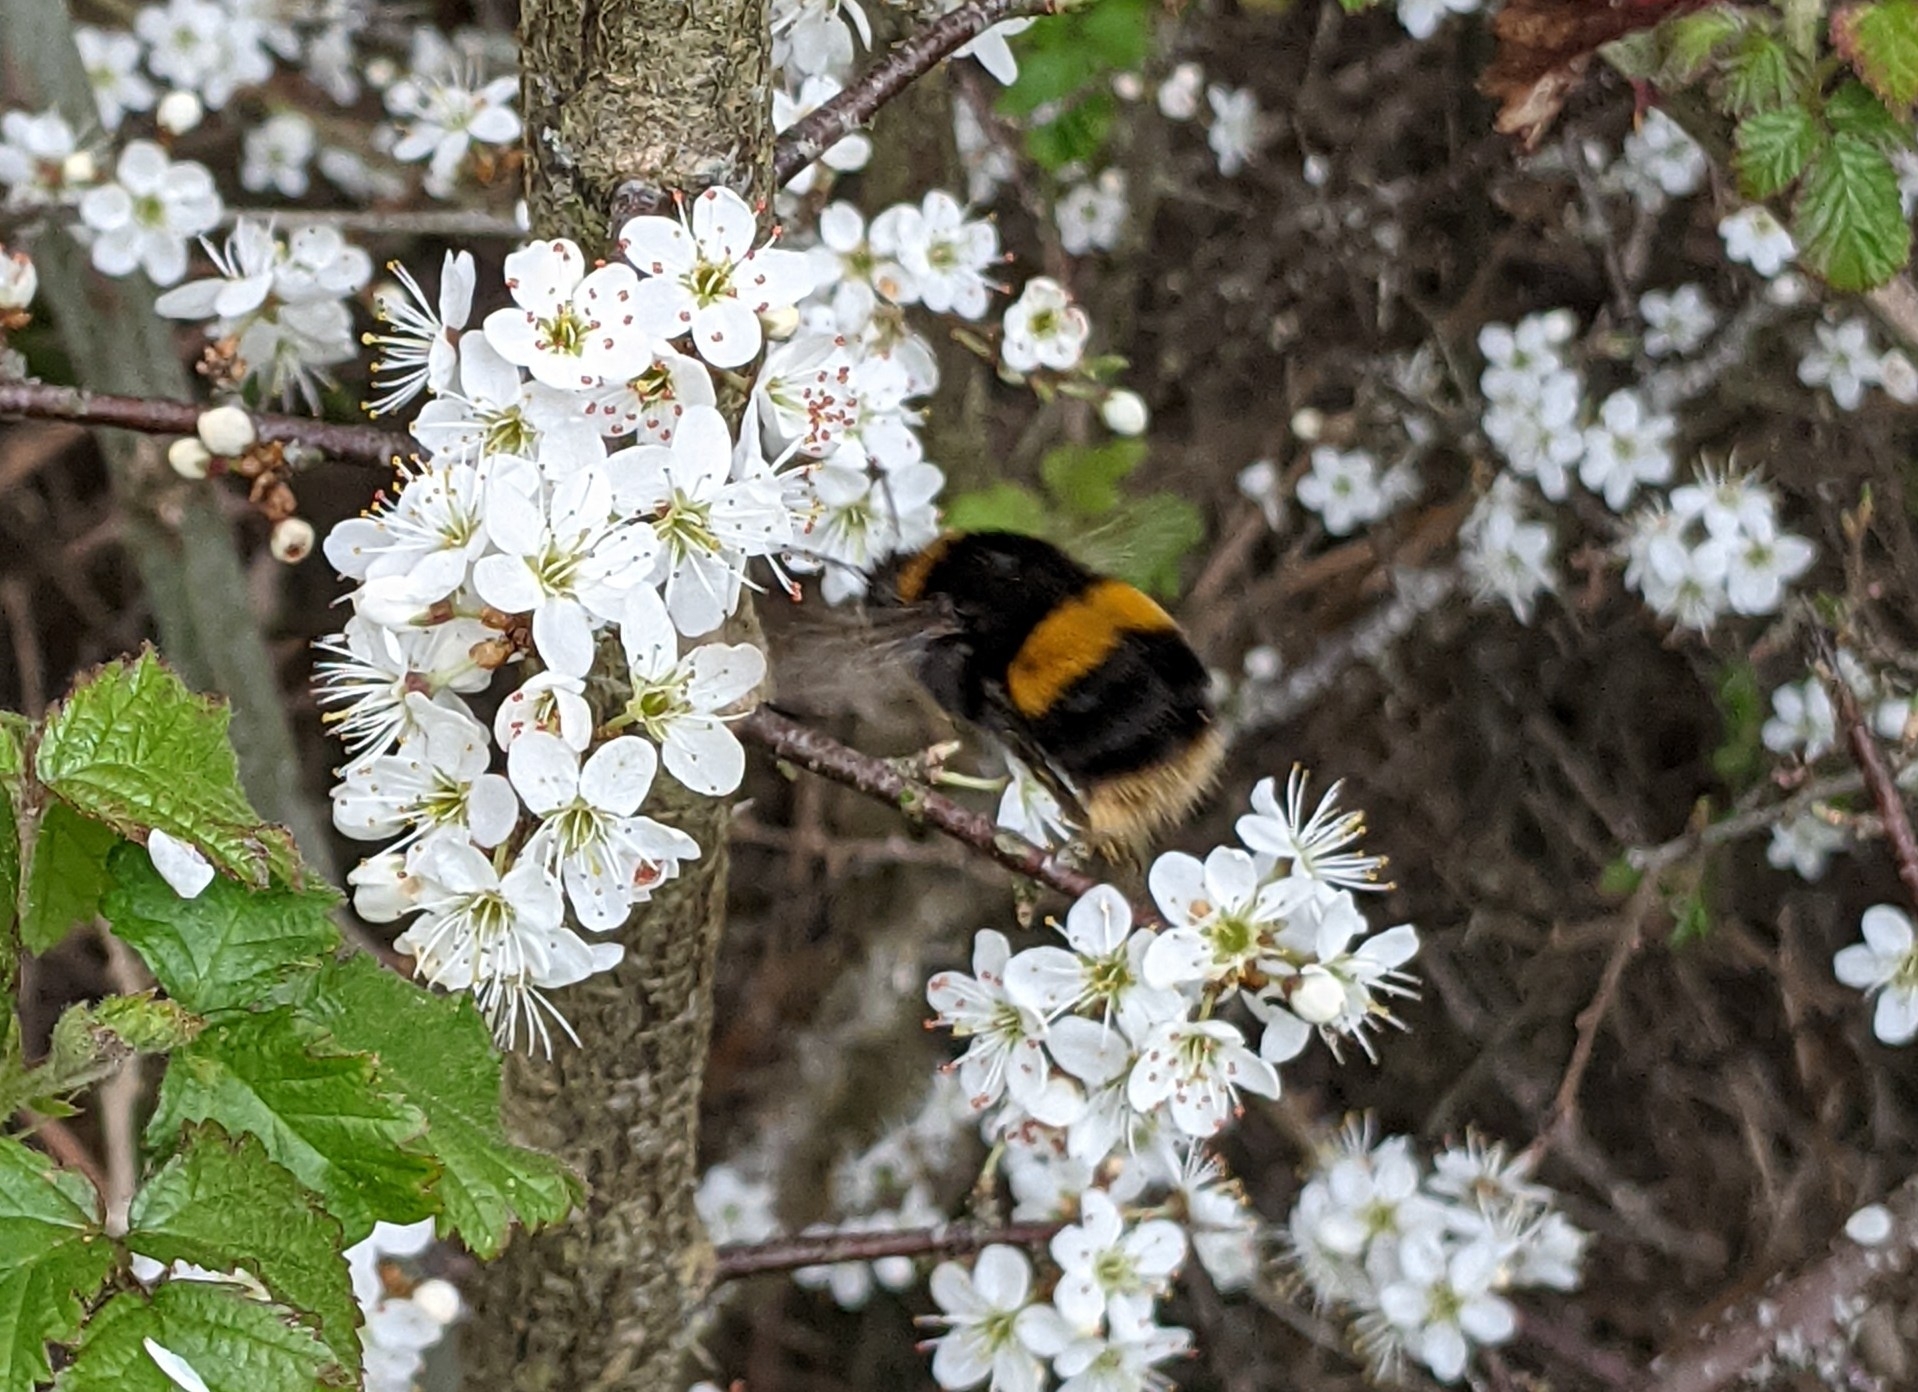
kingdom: Animalia
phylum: Arthropoda
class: Insecta
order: Hymenoptera
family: Apidae
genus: Bombus
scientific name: Bombus terrestris
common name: Buff-tailed bumblebee
